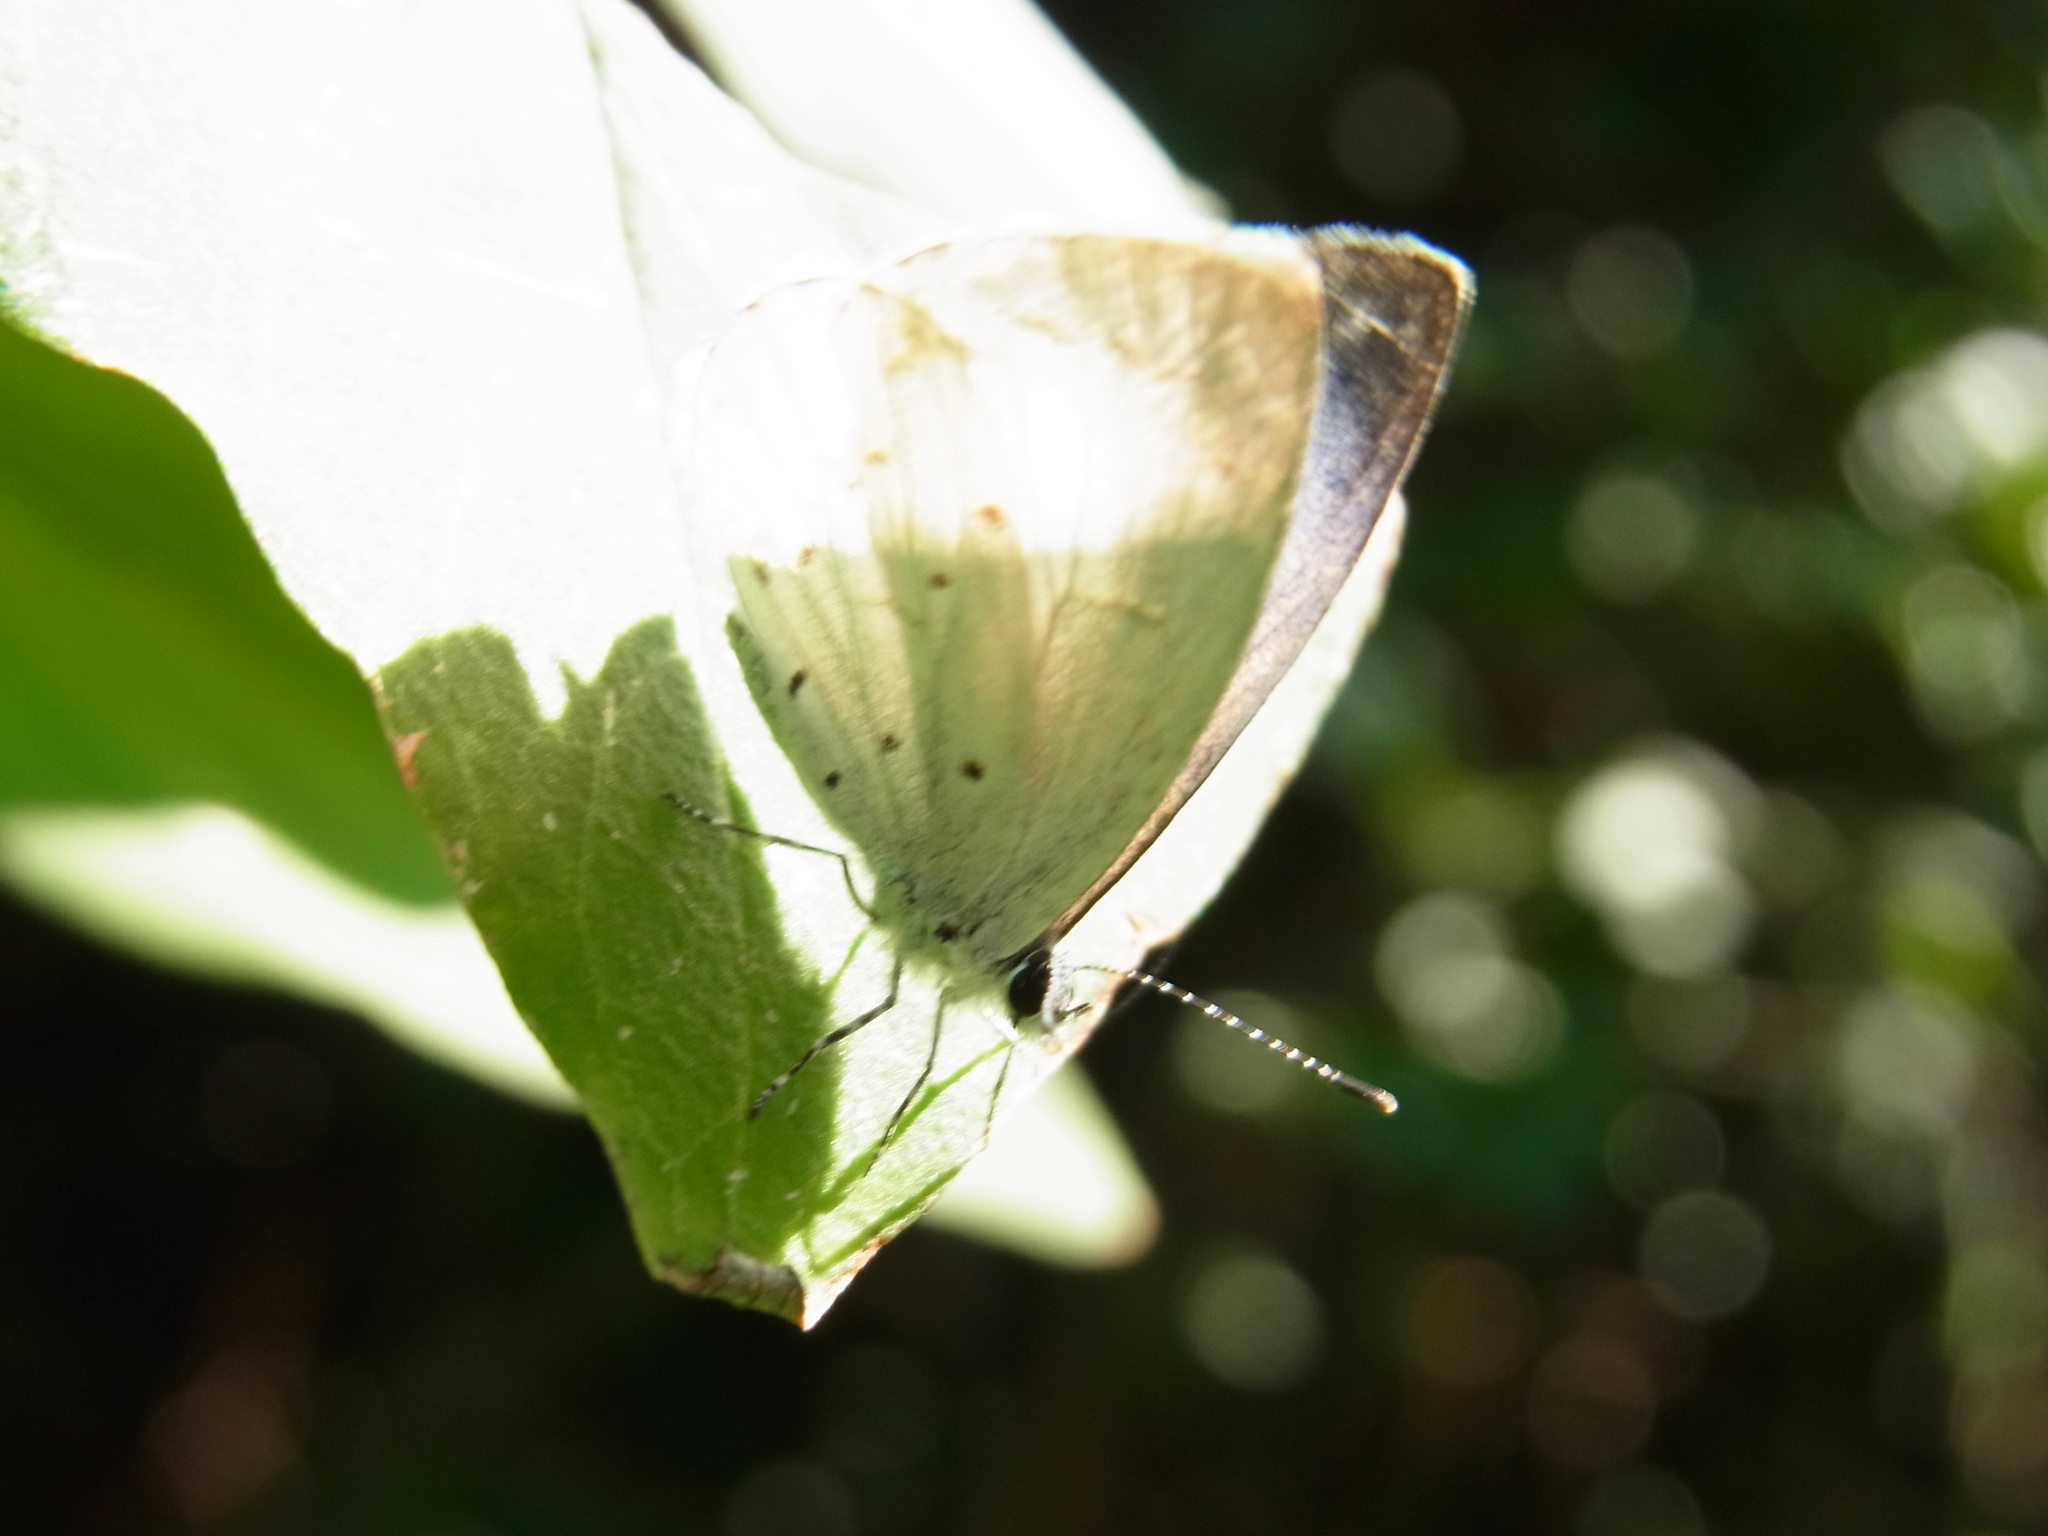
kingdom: Animalia
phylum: Arthropoda
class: Insecta
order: Lepidoptera
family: Lycaenidae
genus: Udara
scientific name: Udara albocaerulea
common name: Albocerulean
